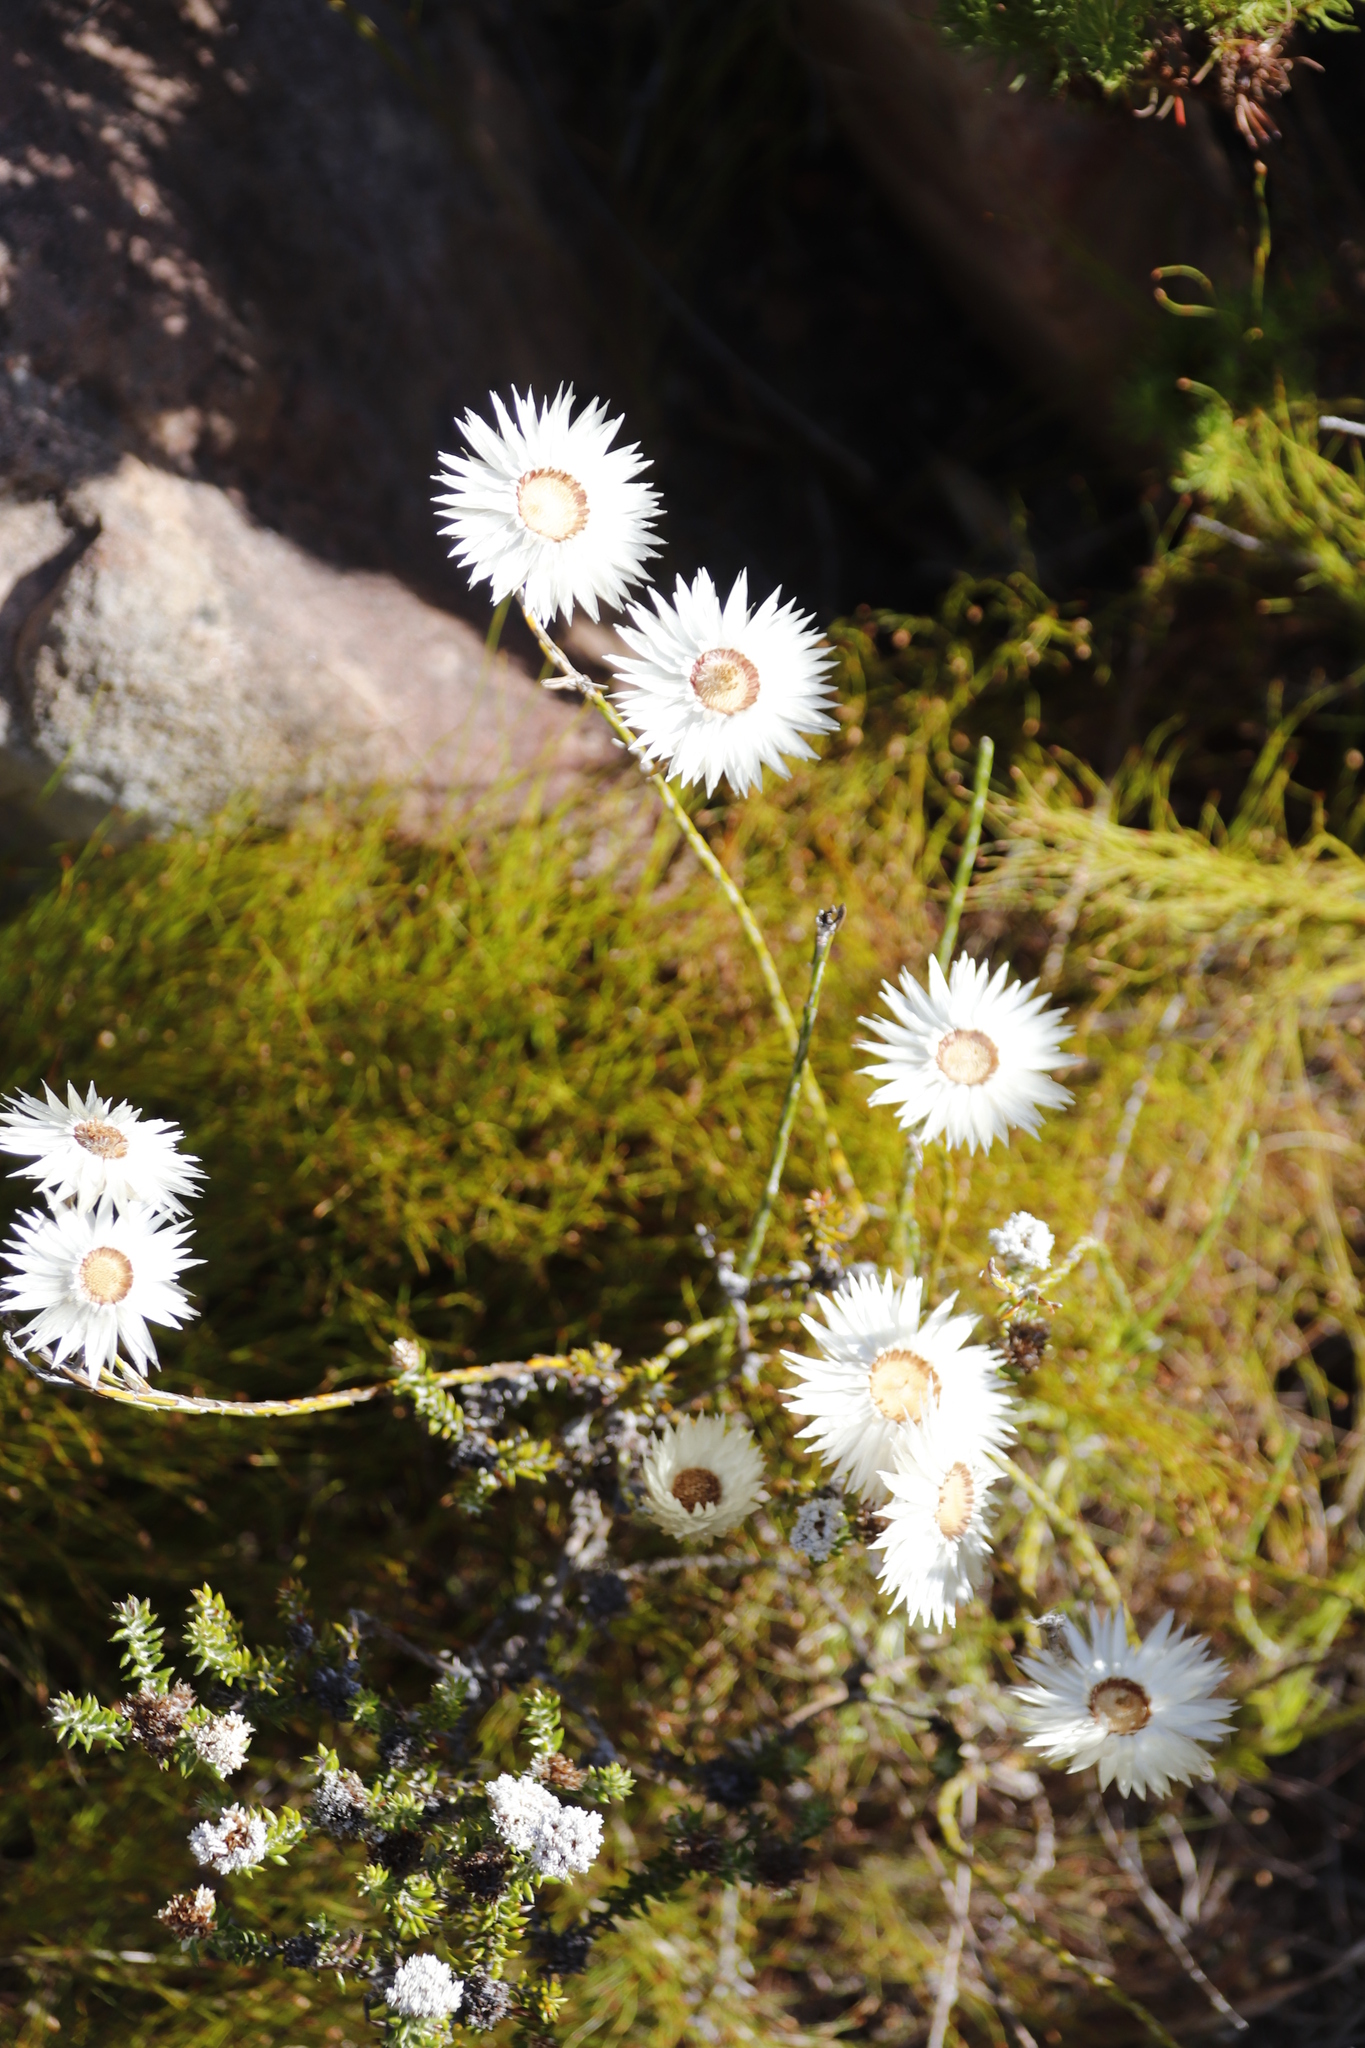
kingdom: Plantae
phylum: Tracheophyta
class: Magnoliopsida
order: Asterales
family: Asteraceae
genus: Edmondia
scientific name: Edmondia sesamoides
